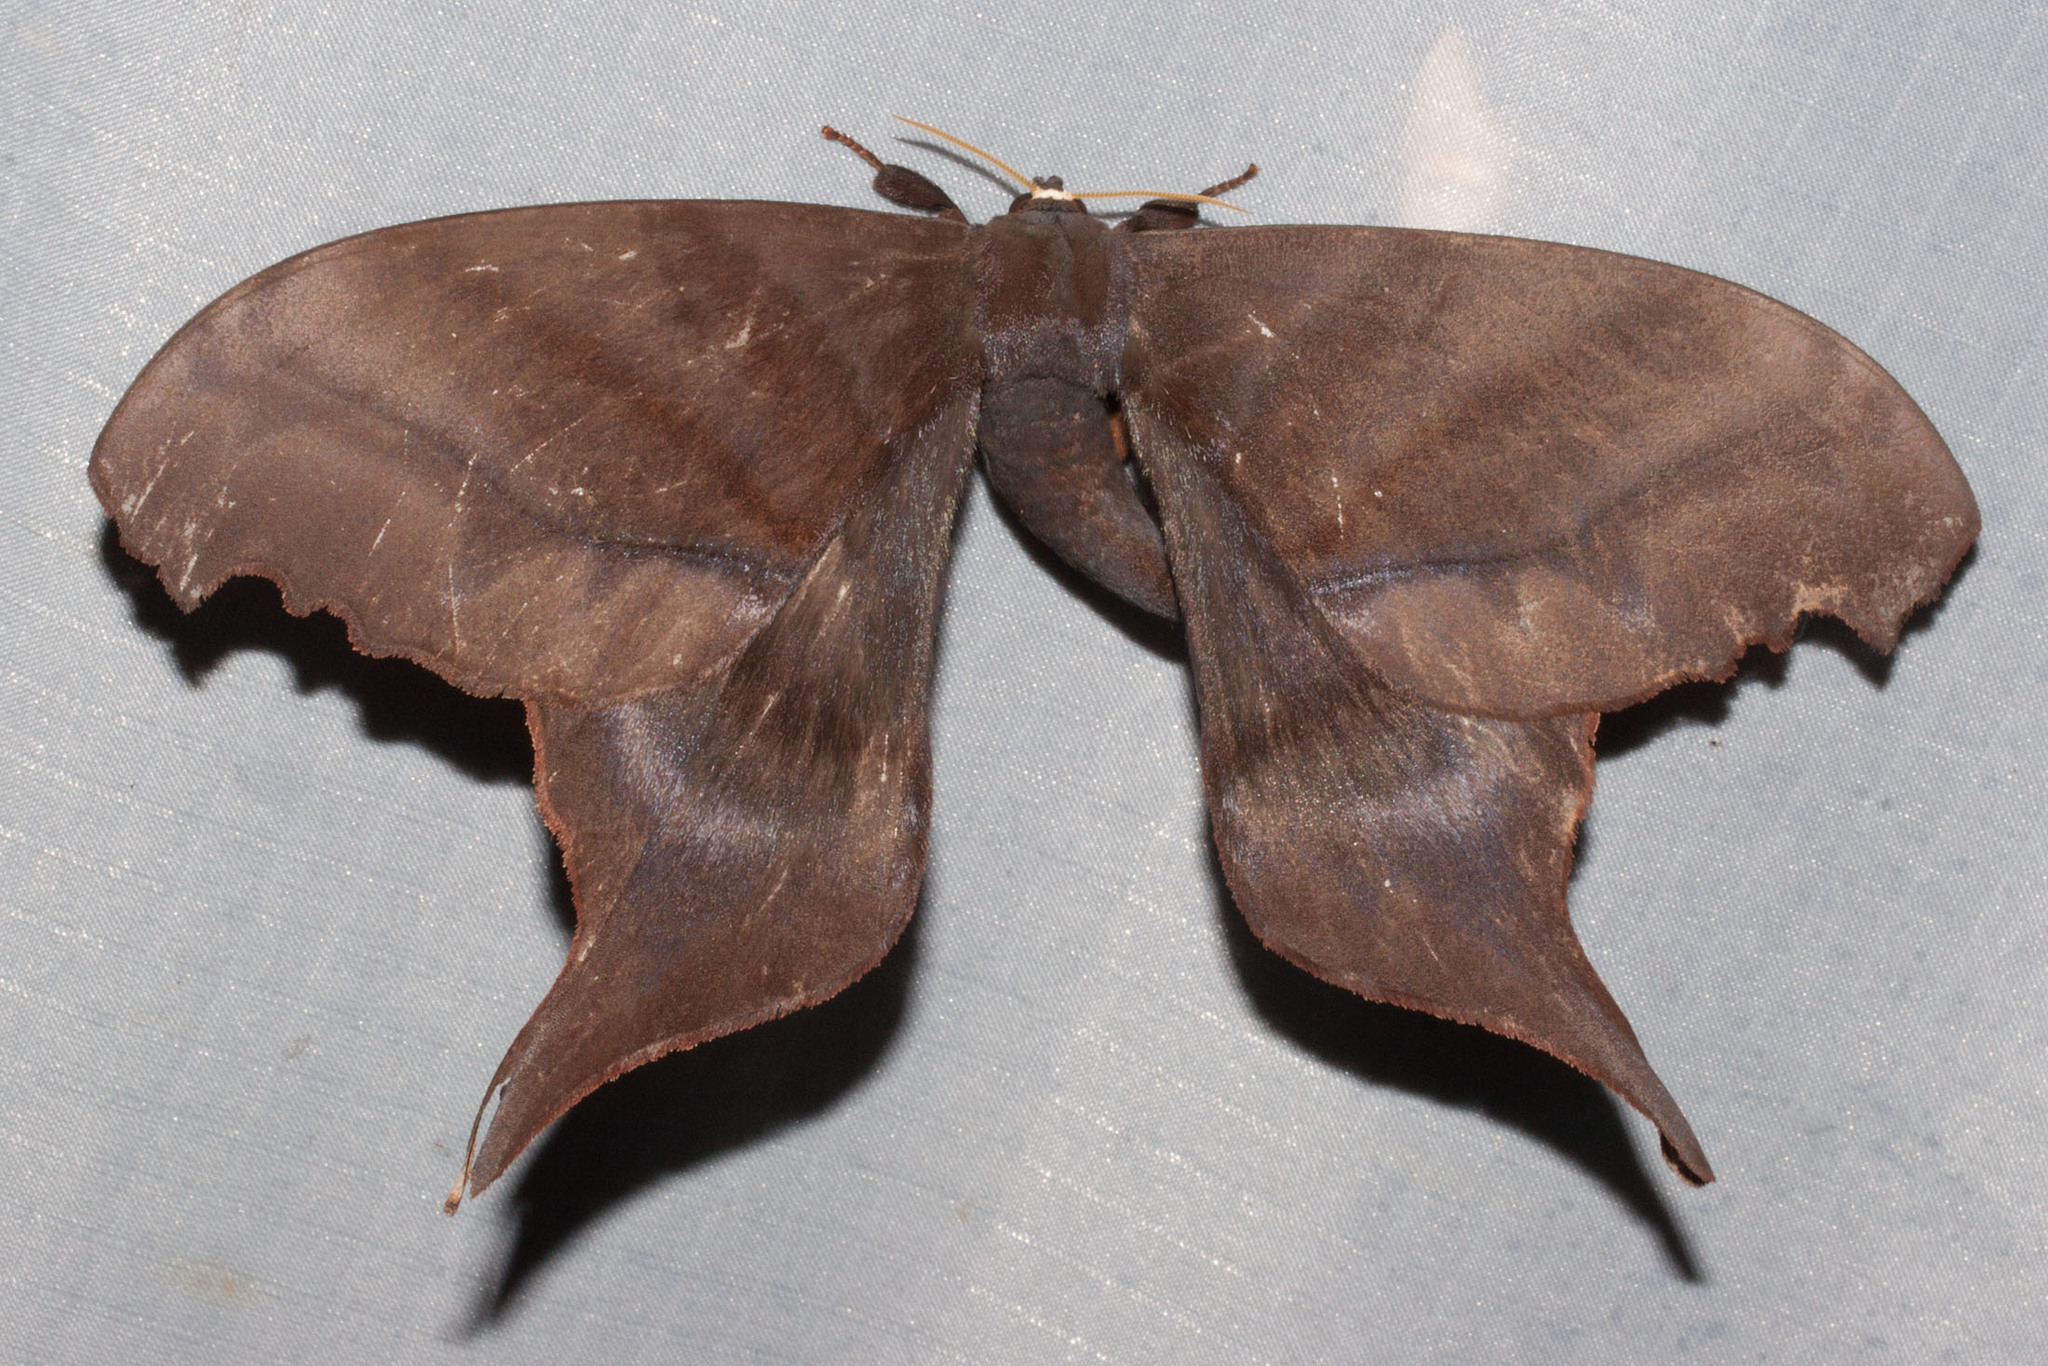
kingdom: Animalia
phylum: Arthropoda
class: Insecta
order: Lepidoptera
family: Saturniidae
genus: Paradaemonia
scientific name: Paradaemonia platydesmia
